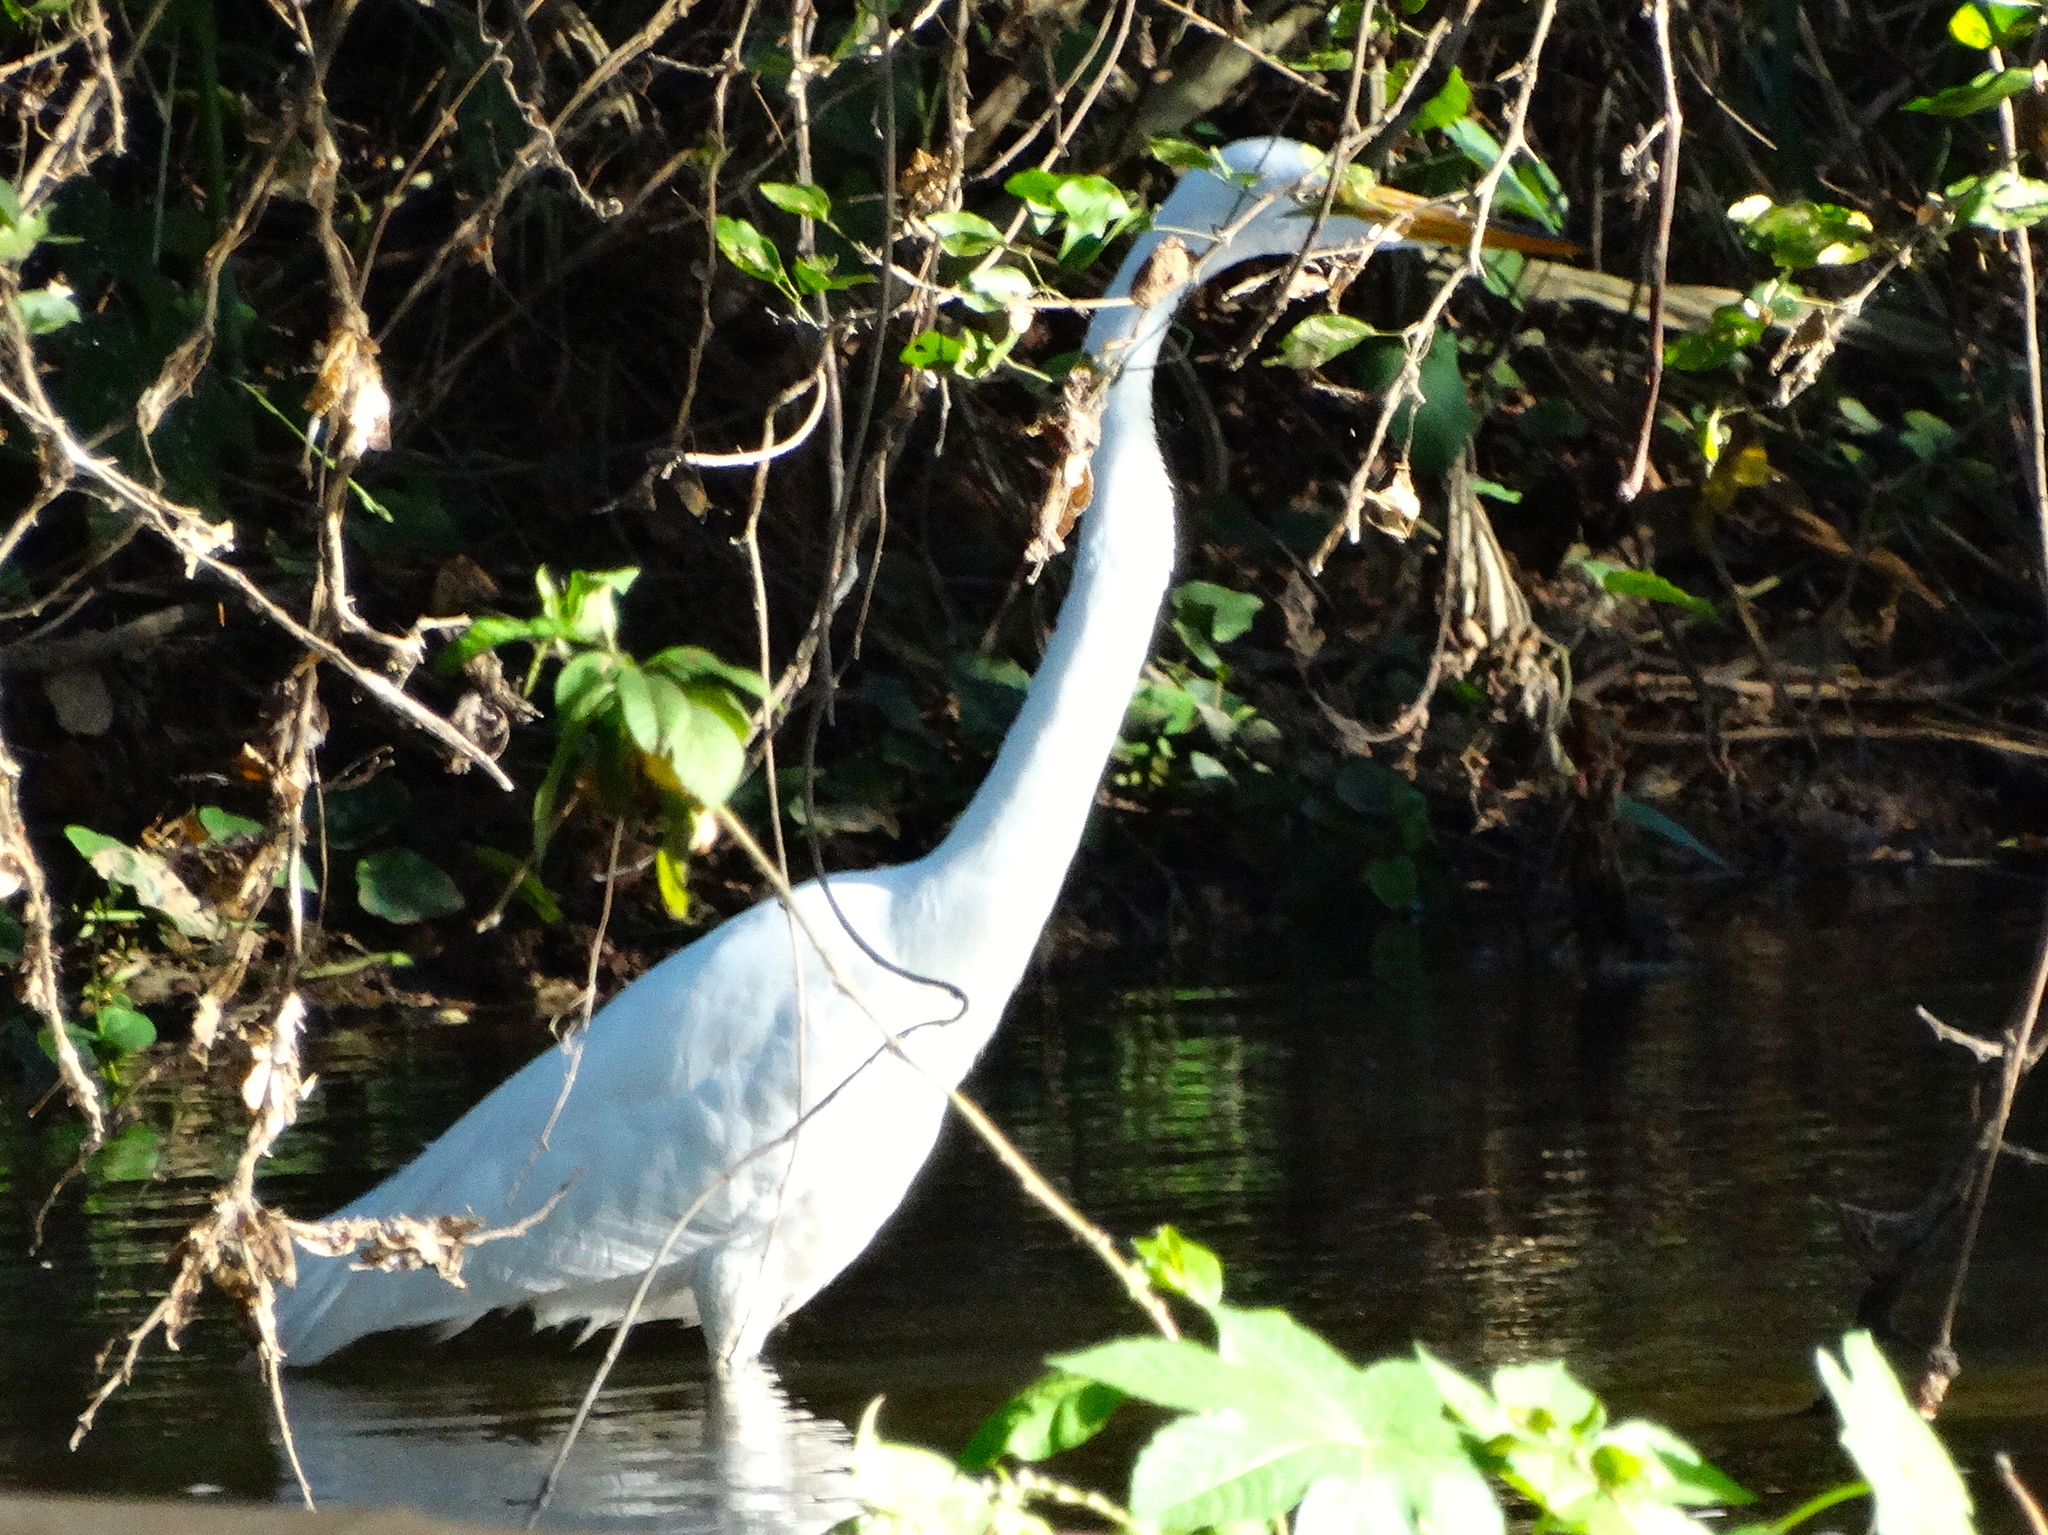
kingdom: Animalia
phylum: Chordata
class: Aves
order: Pelecaniformes
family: Ardeidae
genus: Ardea
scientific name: Ardea alba
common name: Great egret
